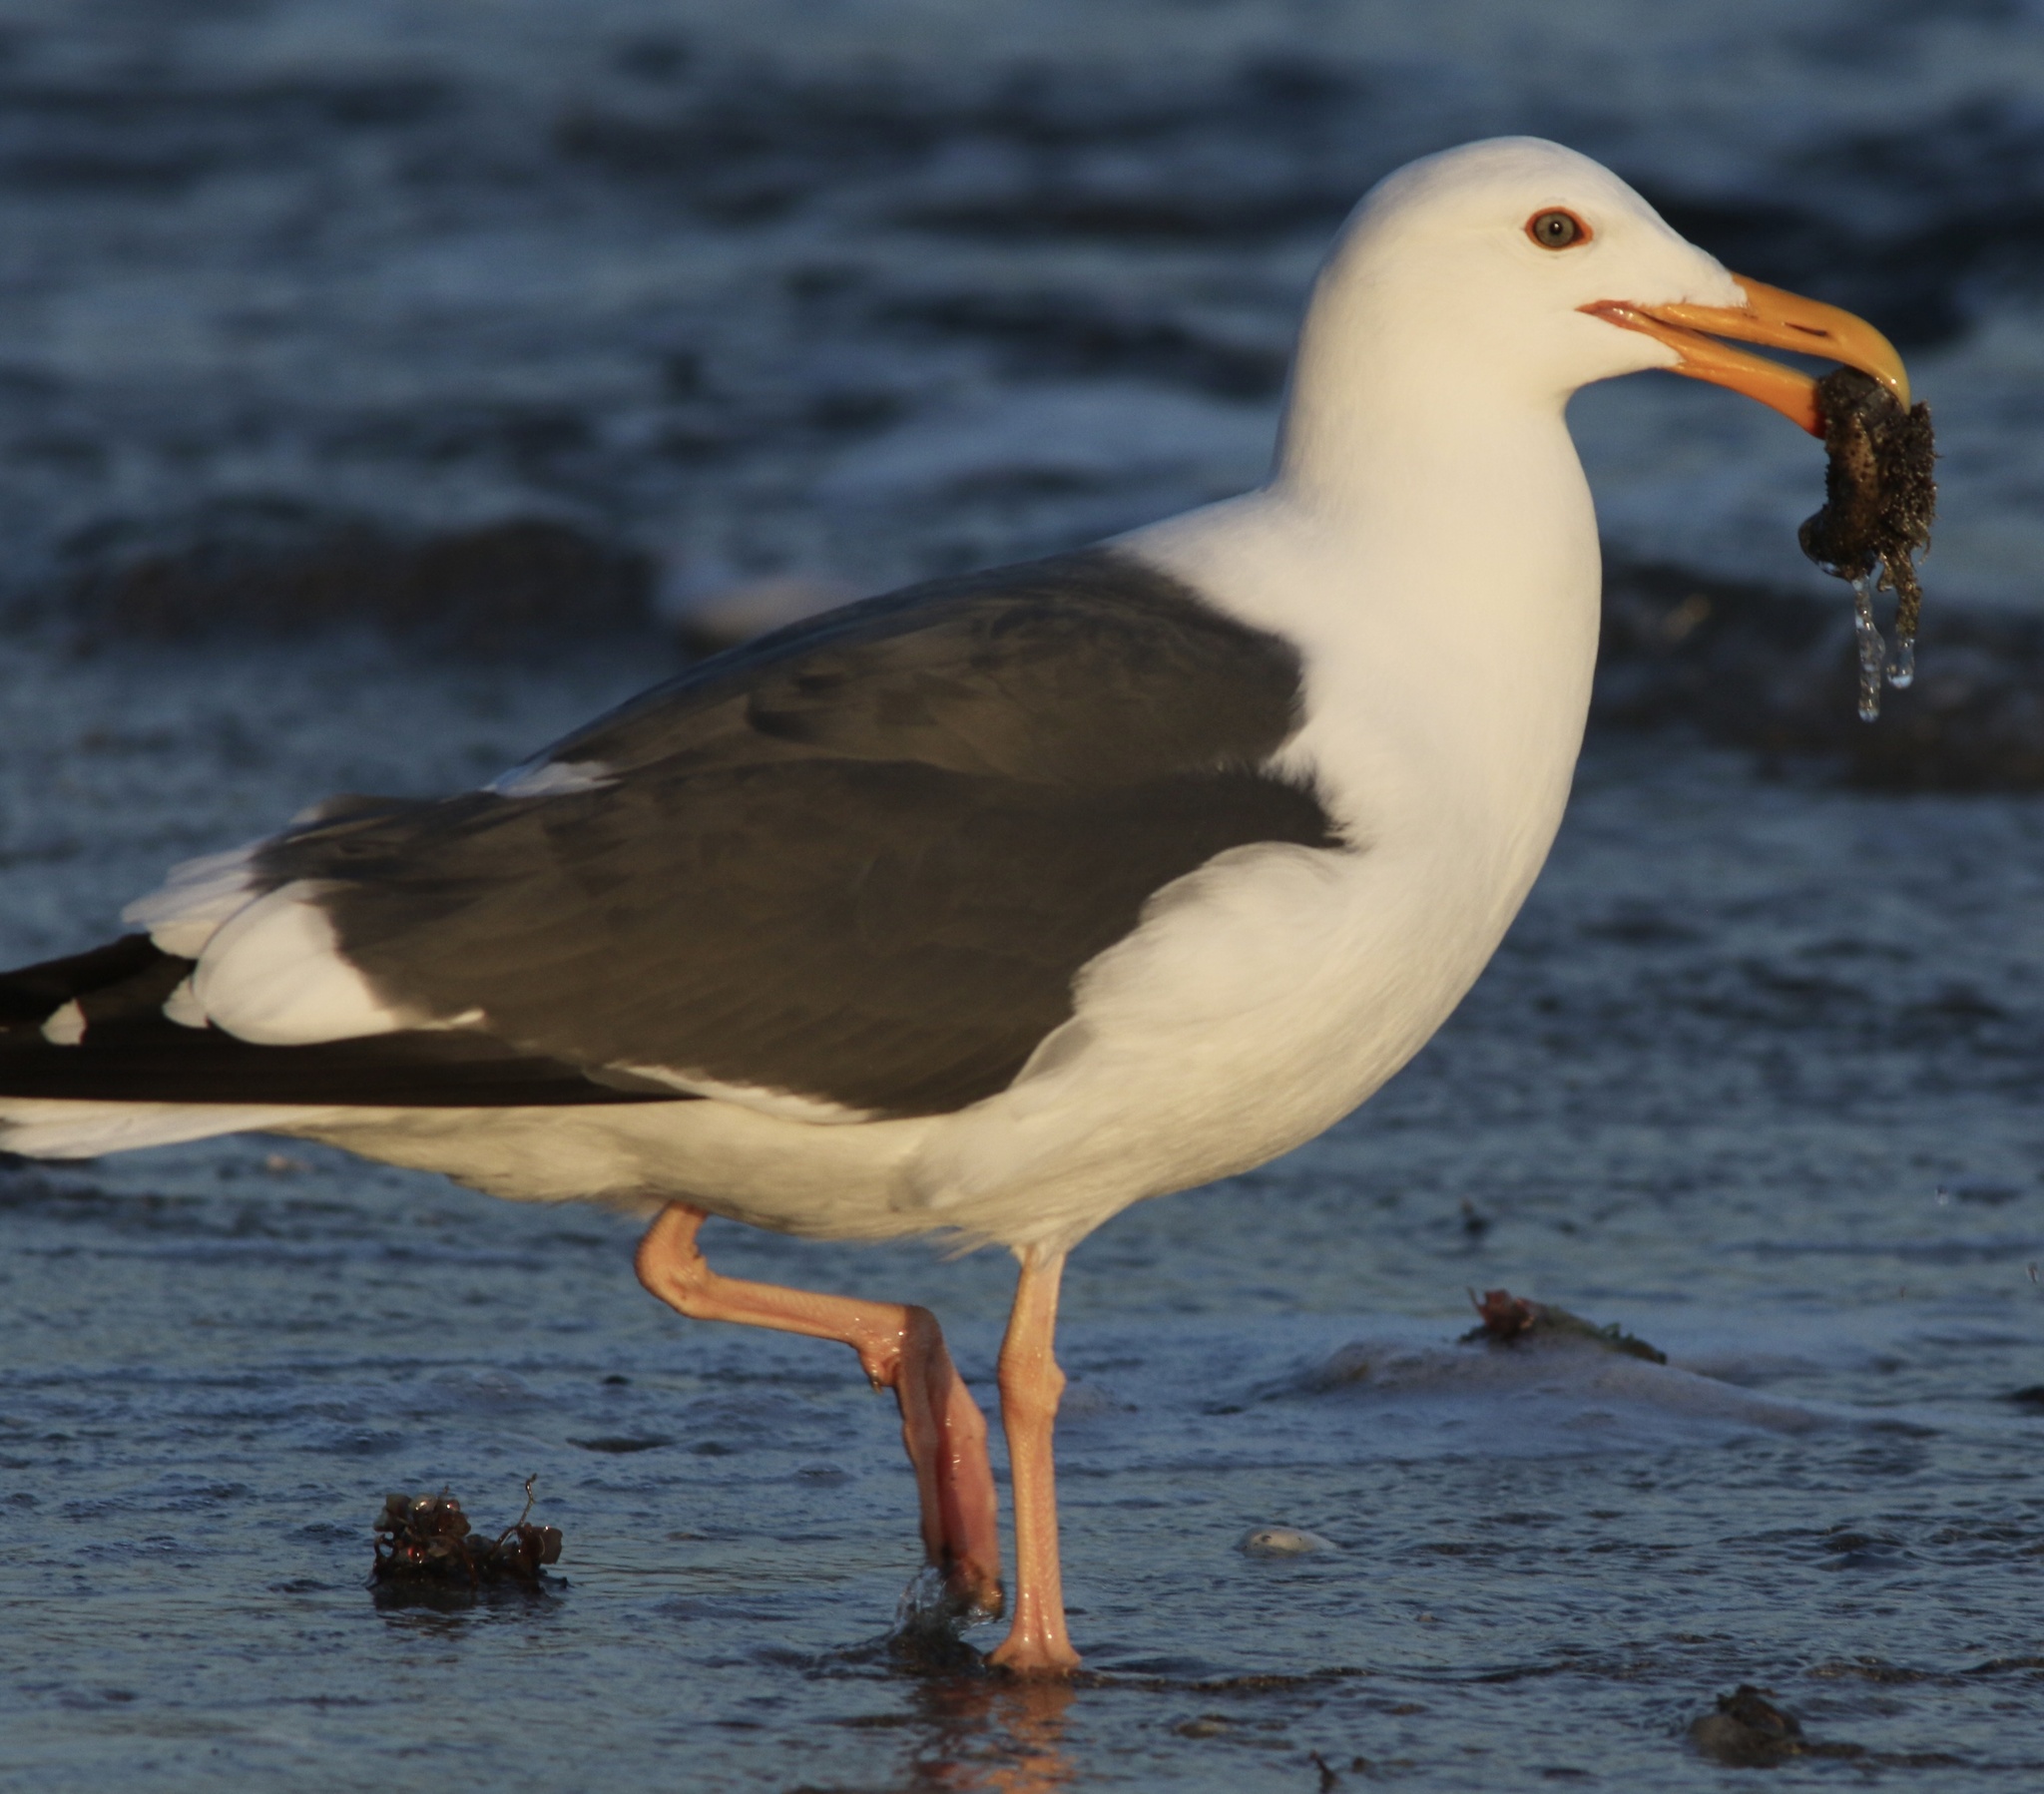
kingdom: Animalia
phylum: Chordata
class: Aves
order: Charadriiformes
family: Laridae
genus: Larus
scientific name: Larus occidentalis
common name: Western gull
